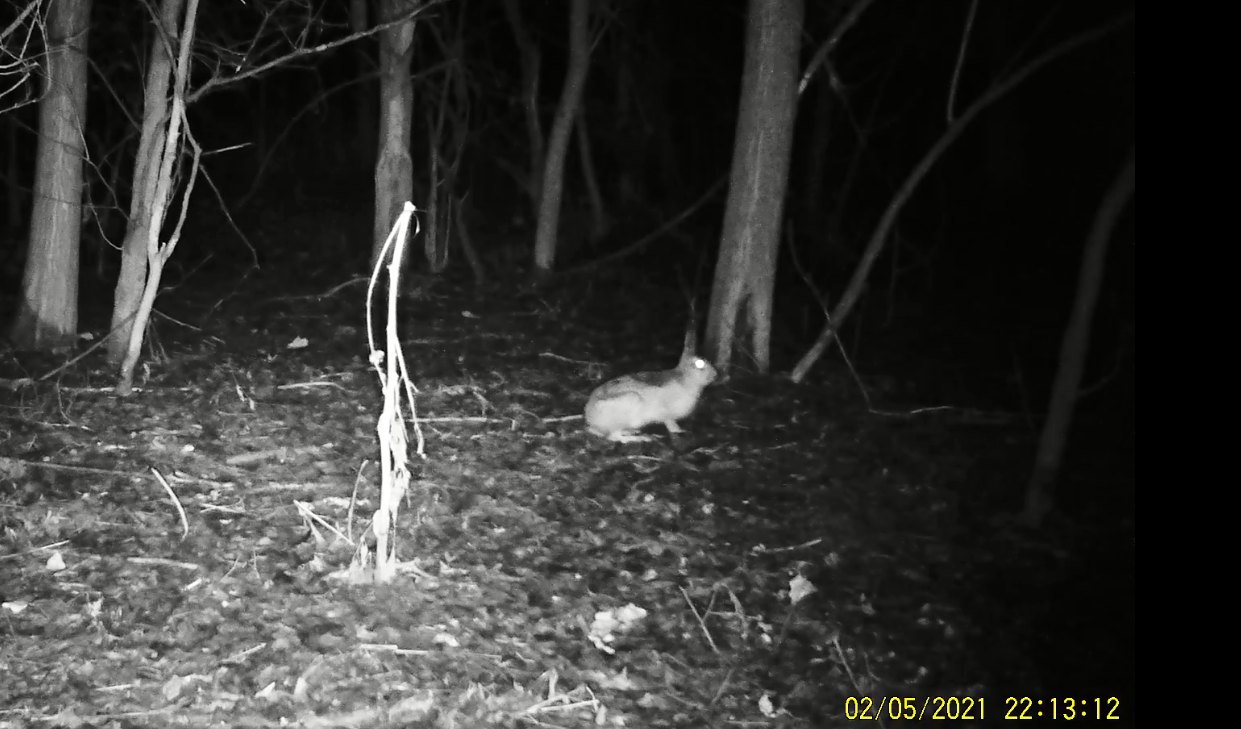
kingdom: Animalia
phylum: Chordata
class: Mammalia
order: Lagomorpha
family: Leporidae
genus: Lepus
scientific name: Lepus europaeus
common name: European hare
